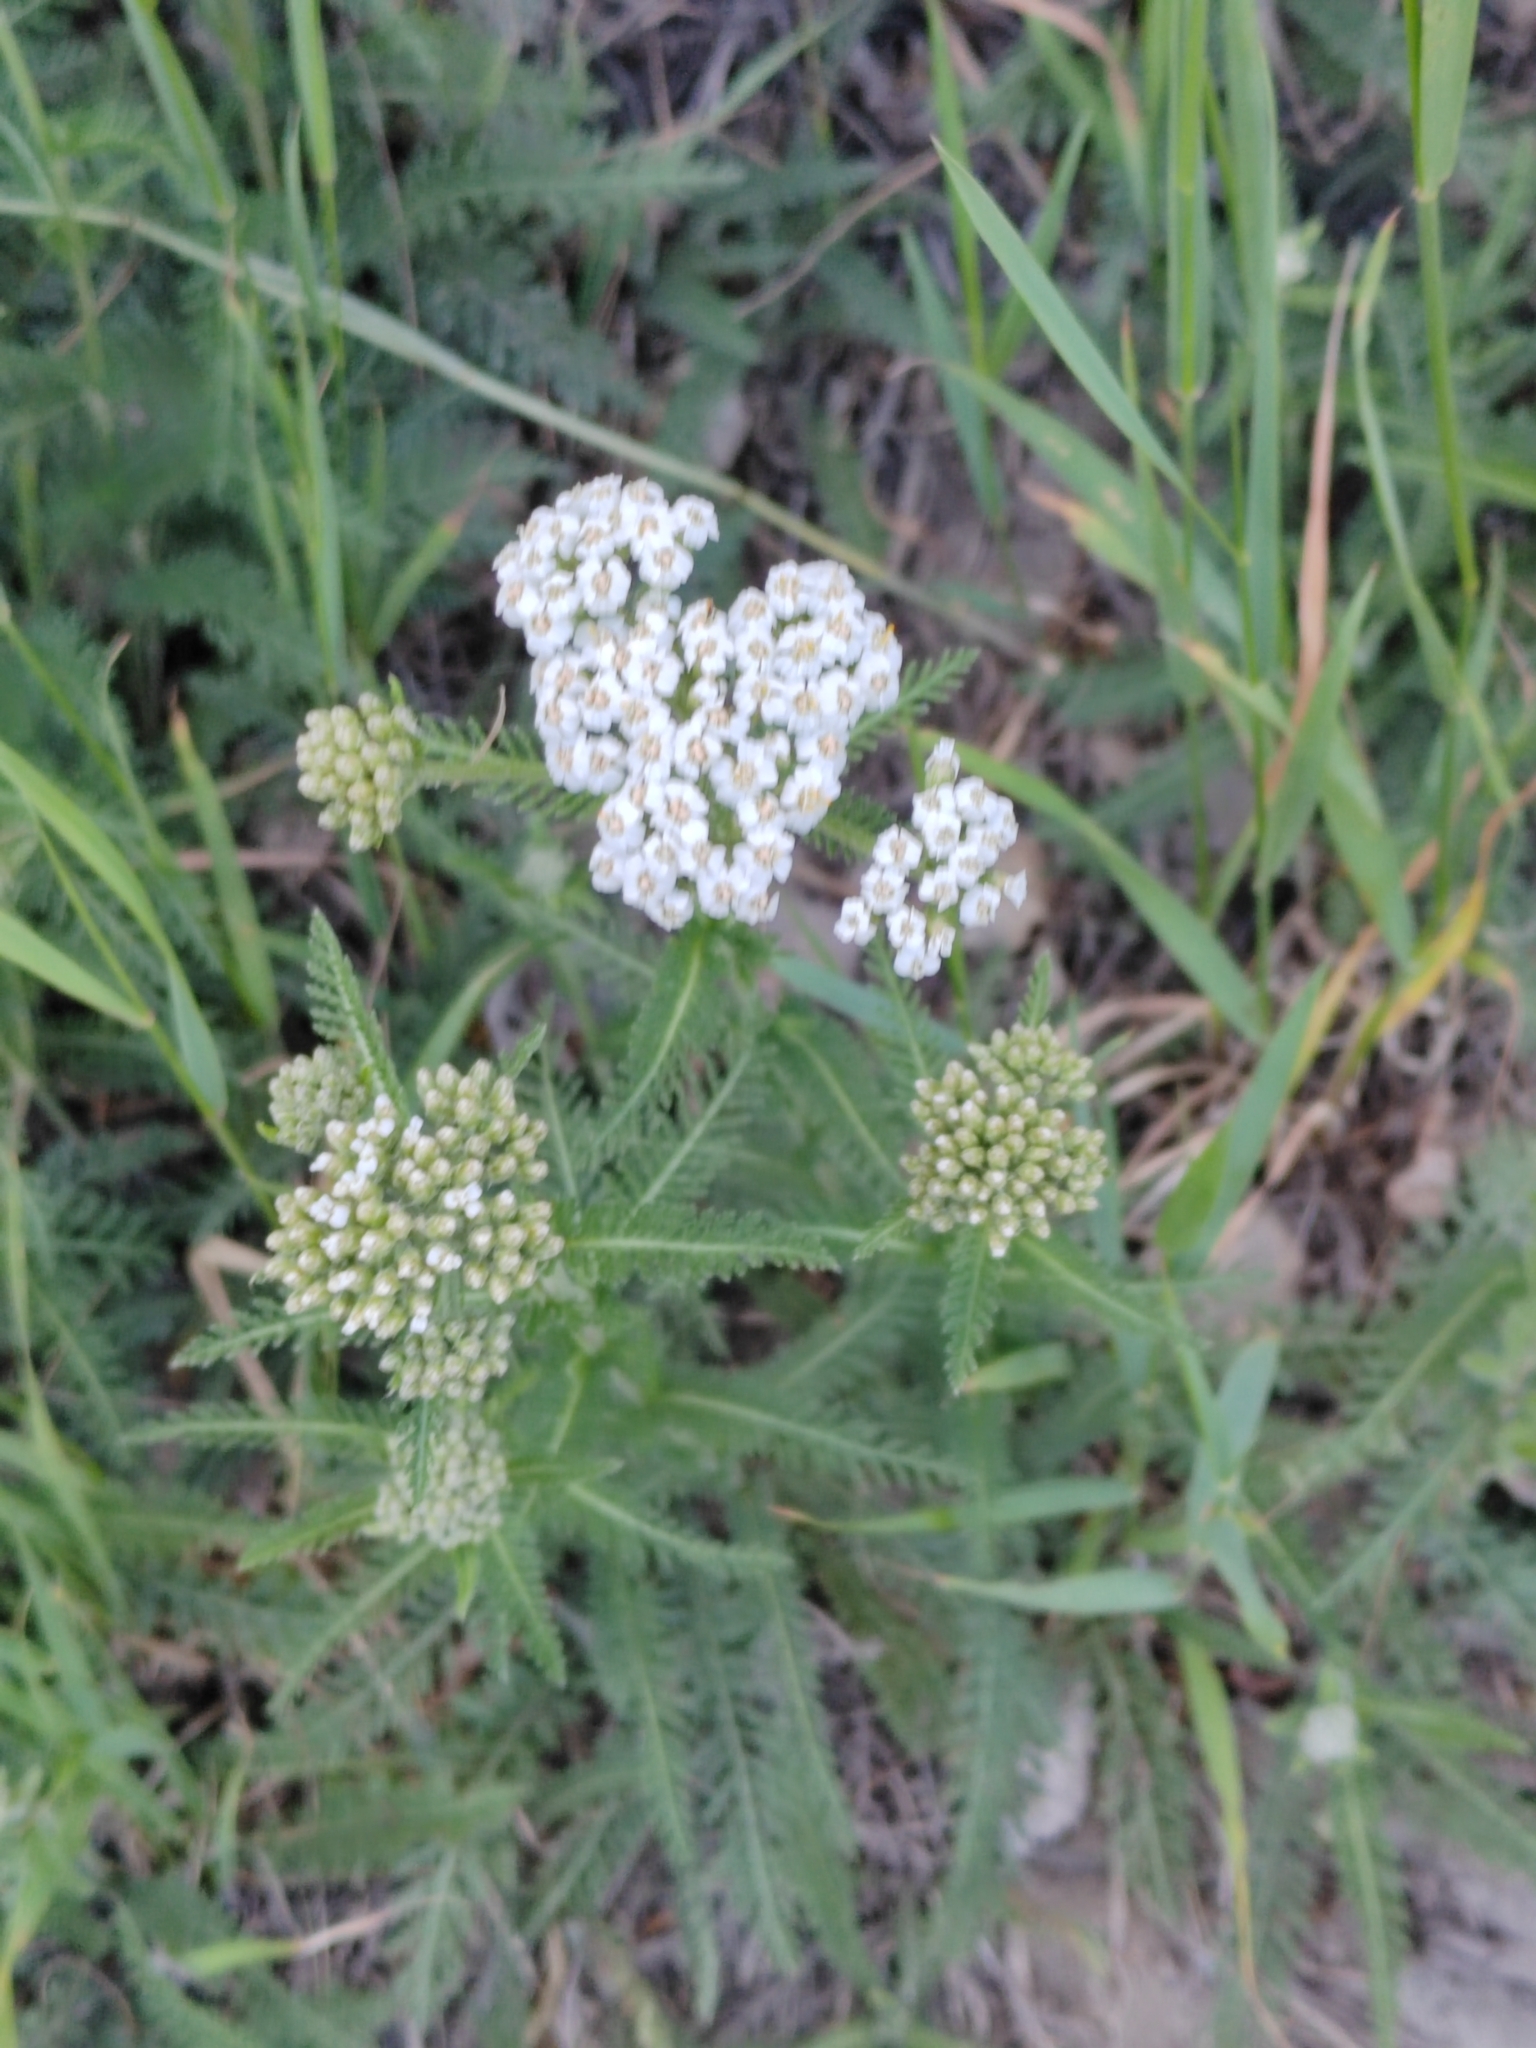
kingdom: Plantae
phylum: Tracheophyta
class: Magnoliopsida
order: Asterales
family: Asteraceae
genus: Achillea
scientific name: Achillea millefolium
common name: Yarrow
